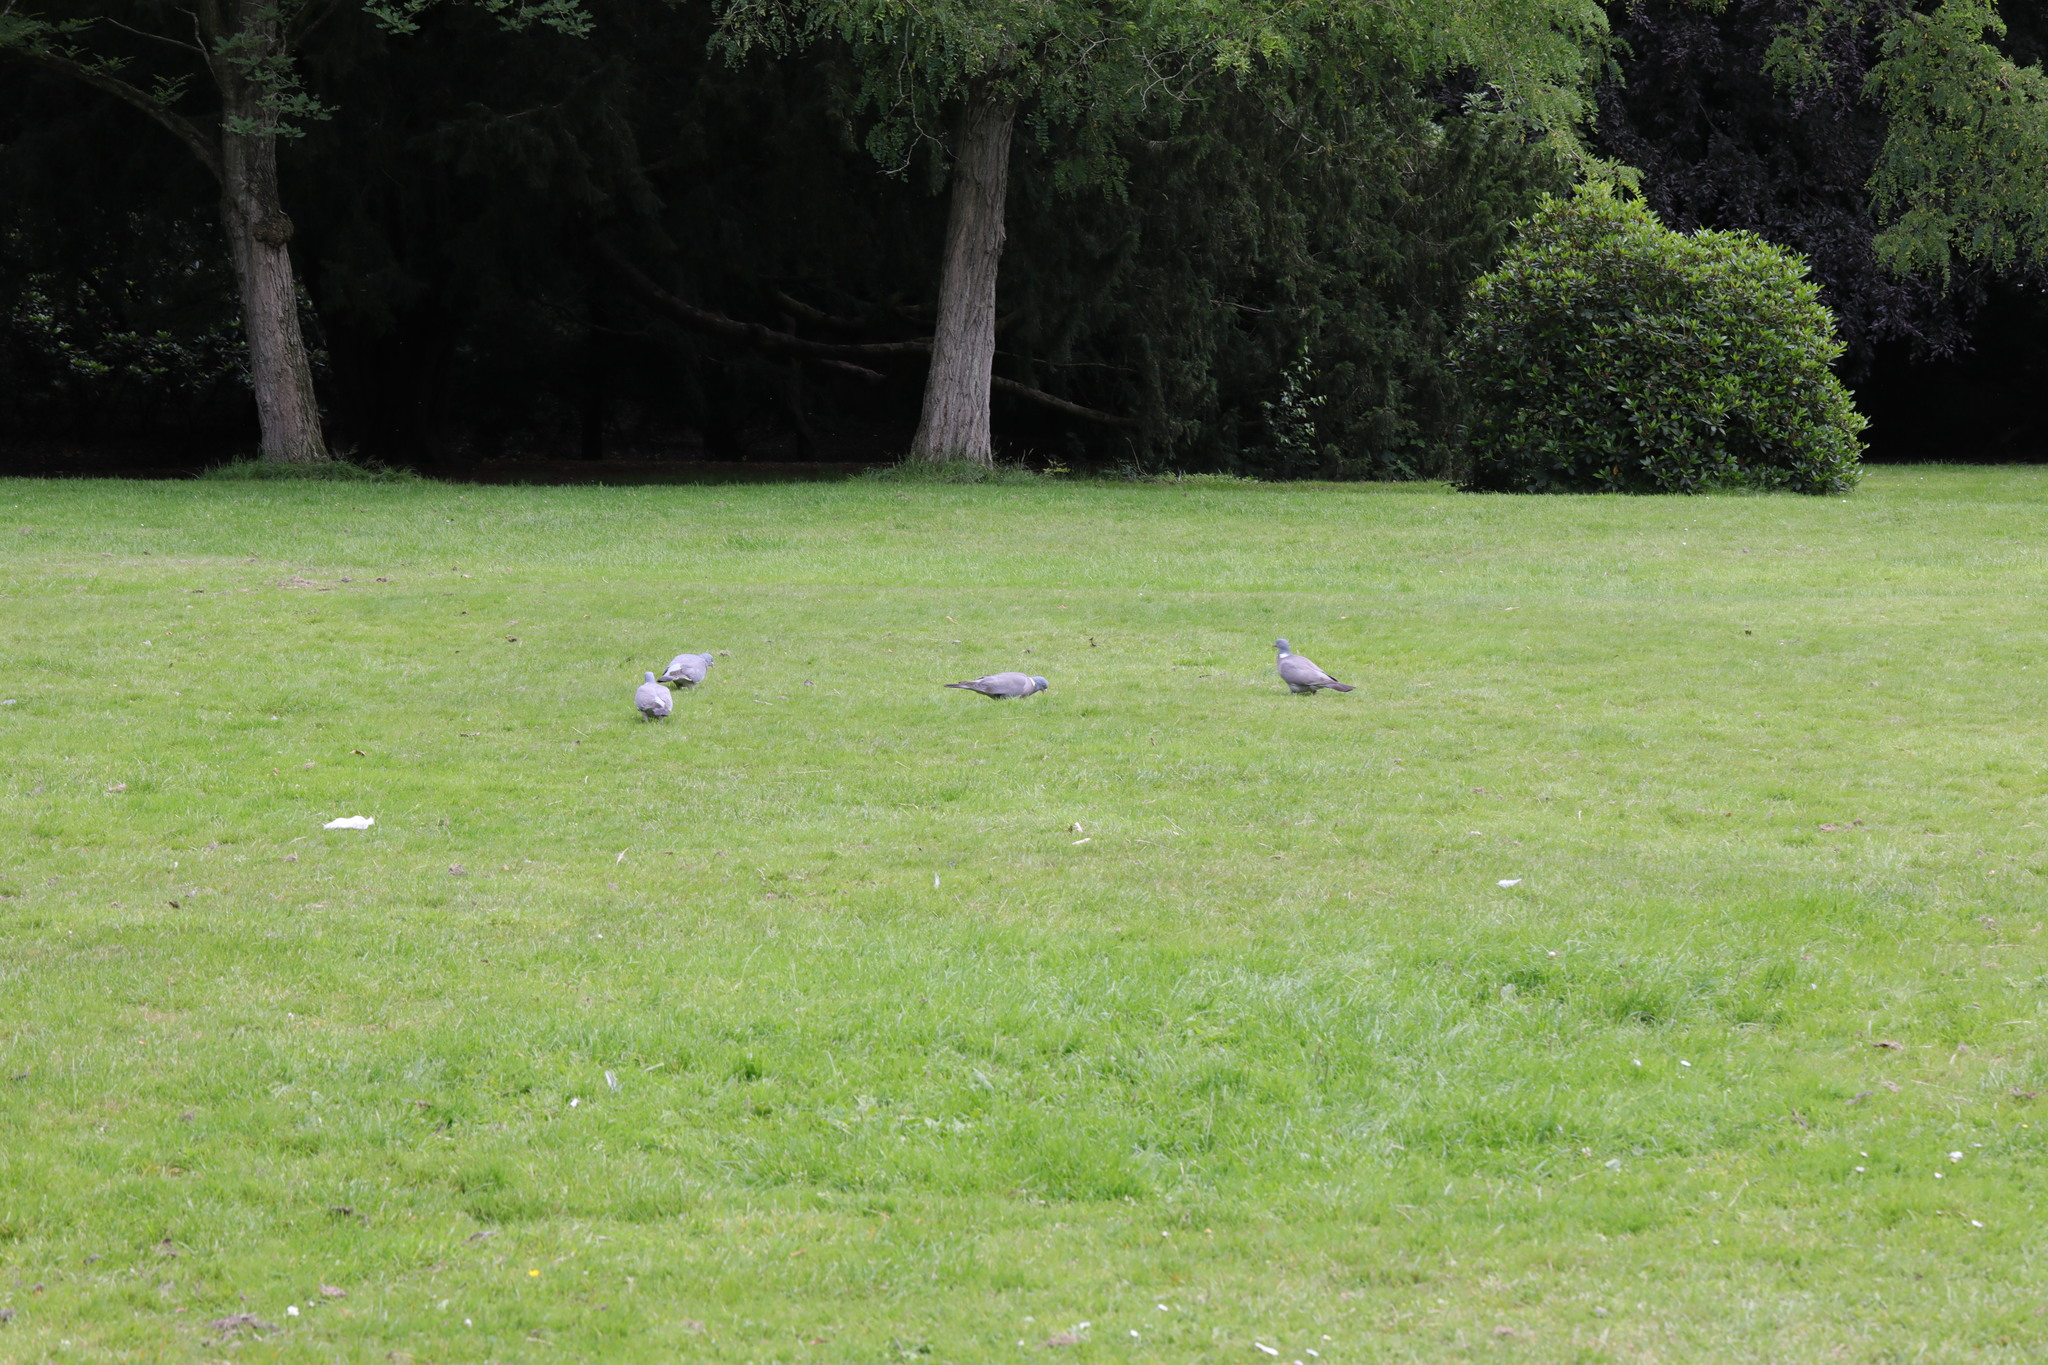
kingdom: Animalia
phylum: Chordata
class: Aves
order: Columbiformes
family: Columbidae
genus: Columba
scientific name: Columba palumbus
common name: Common wood pigeon
